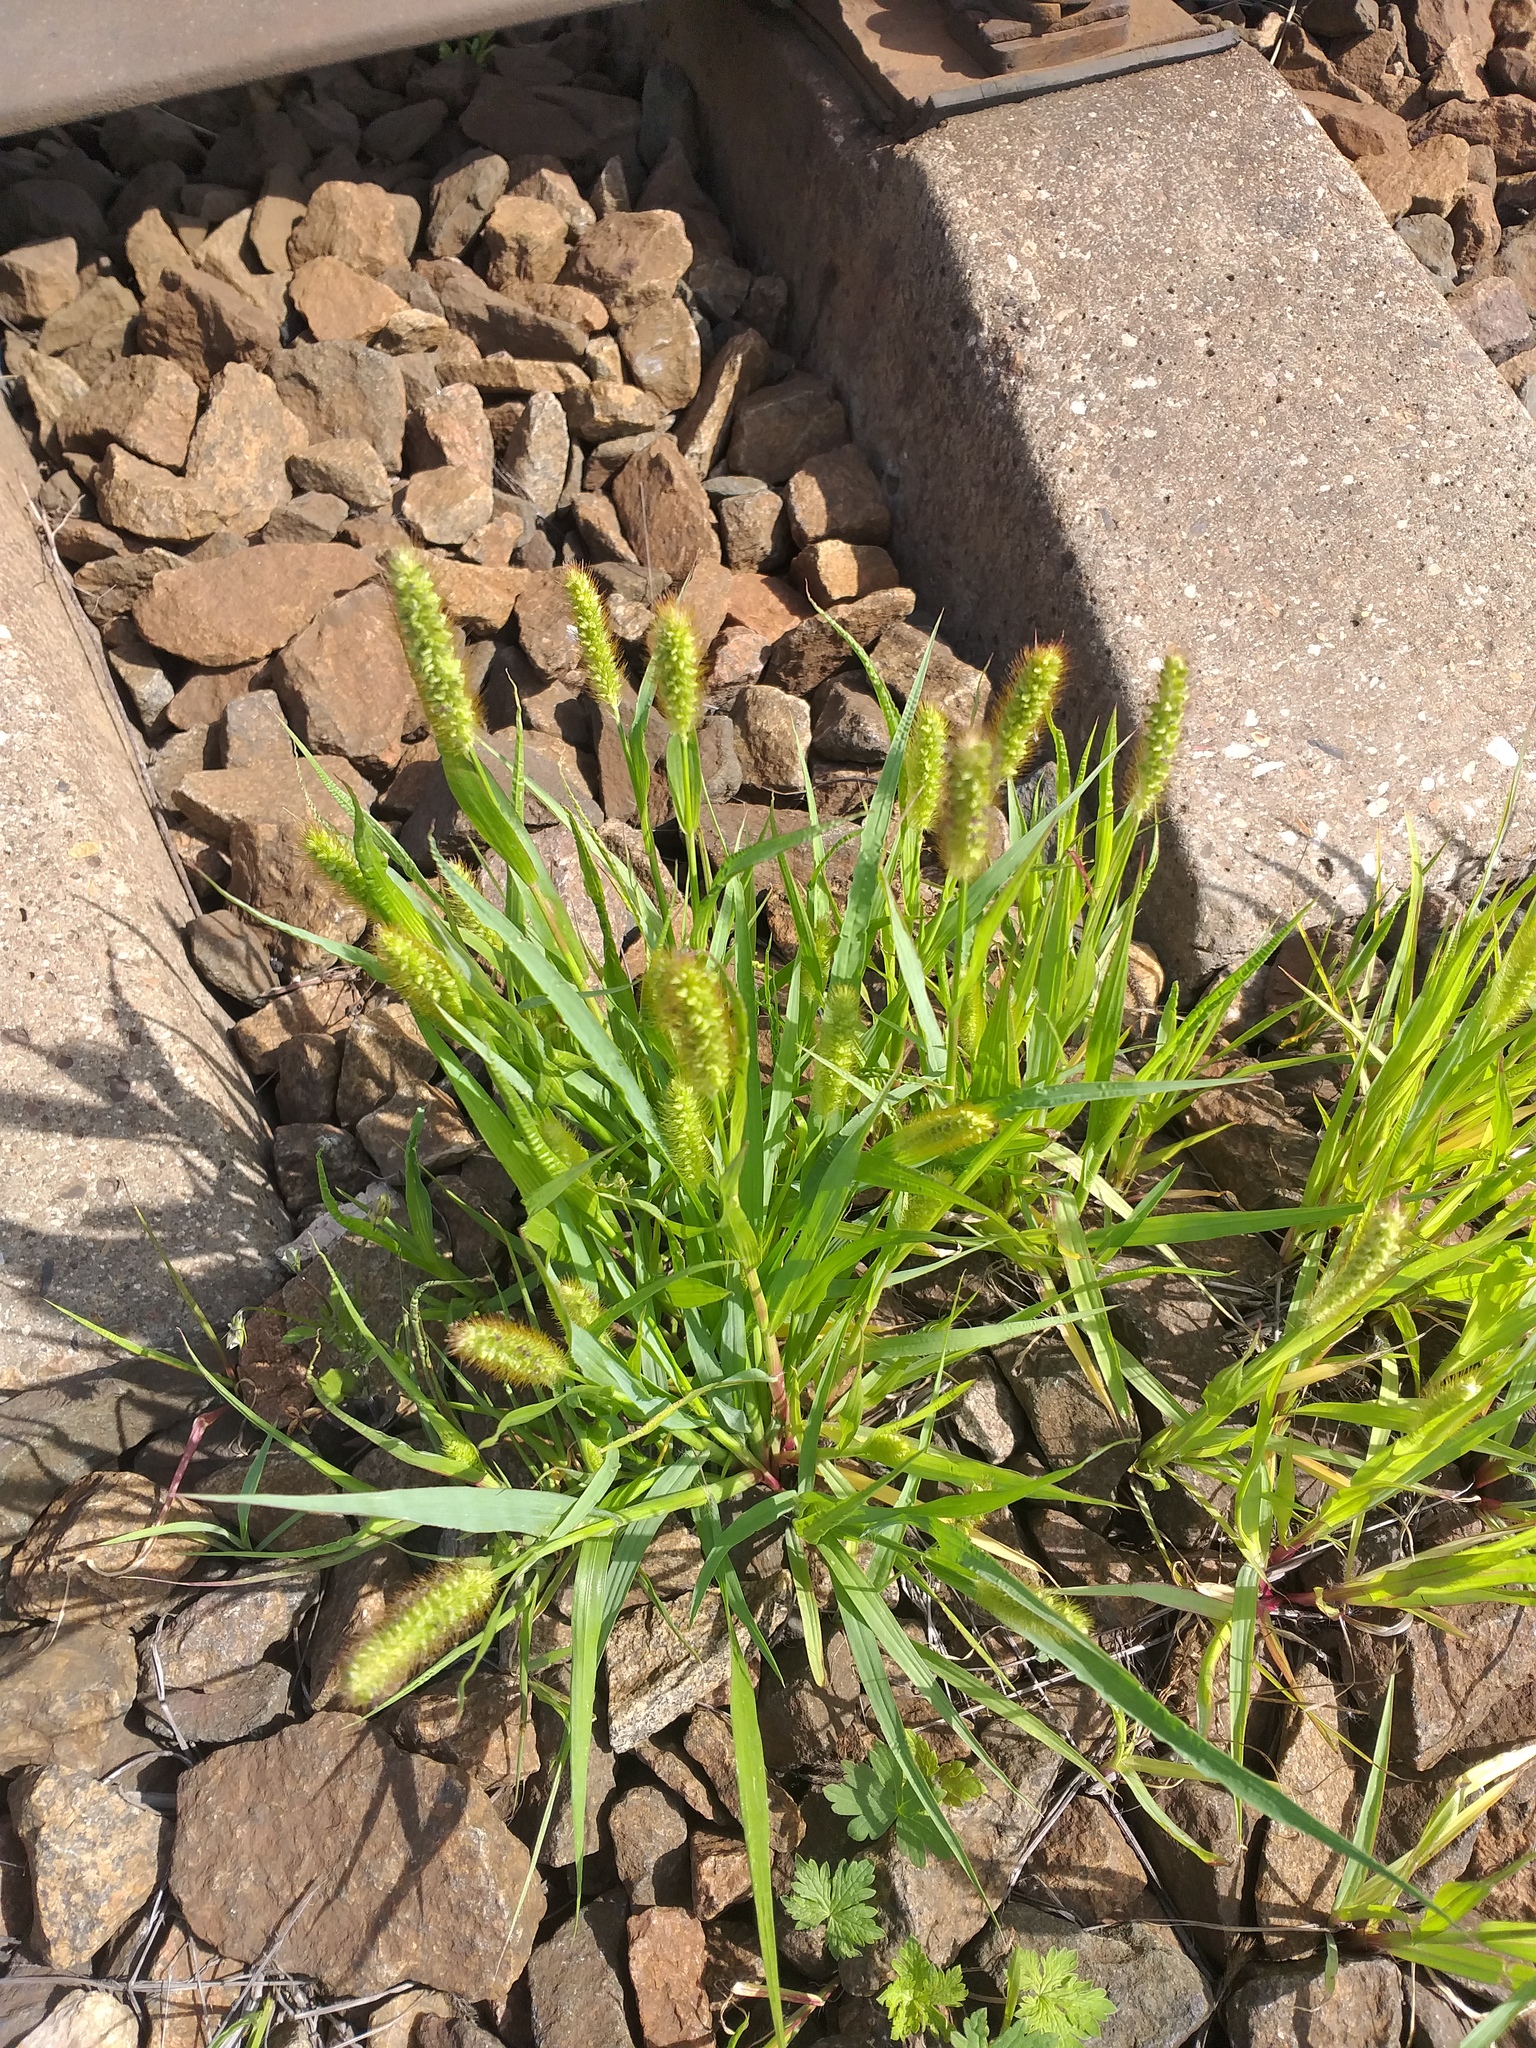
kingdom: Plantae
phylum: Tracheophyta
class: Liliopsida
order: Poales
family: Poaceae
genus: Setaria
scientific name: Setaria pumila
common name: Yellow bristle-grass
